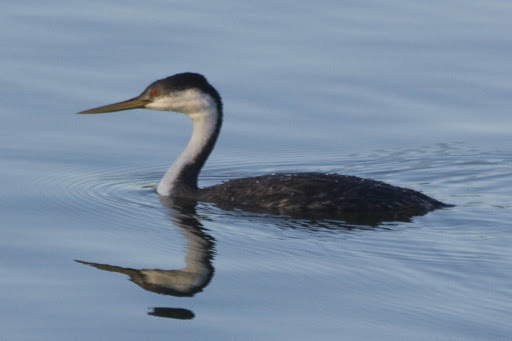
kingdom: Animalia
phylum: Chordata
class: Aves
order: Podicipediformes
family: Podicipedidae
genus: Aechmophorus
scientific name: Aechmophorus occidentalis
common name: Western grebe
